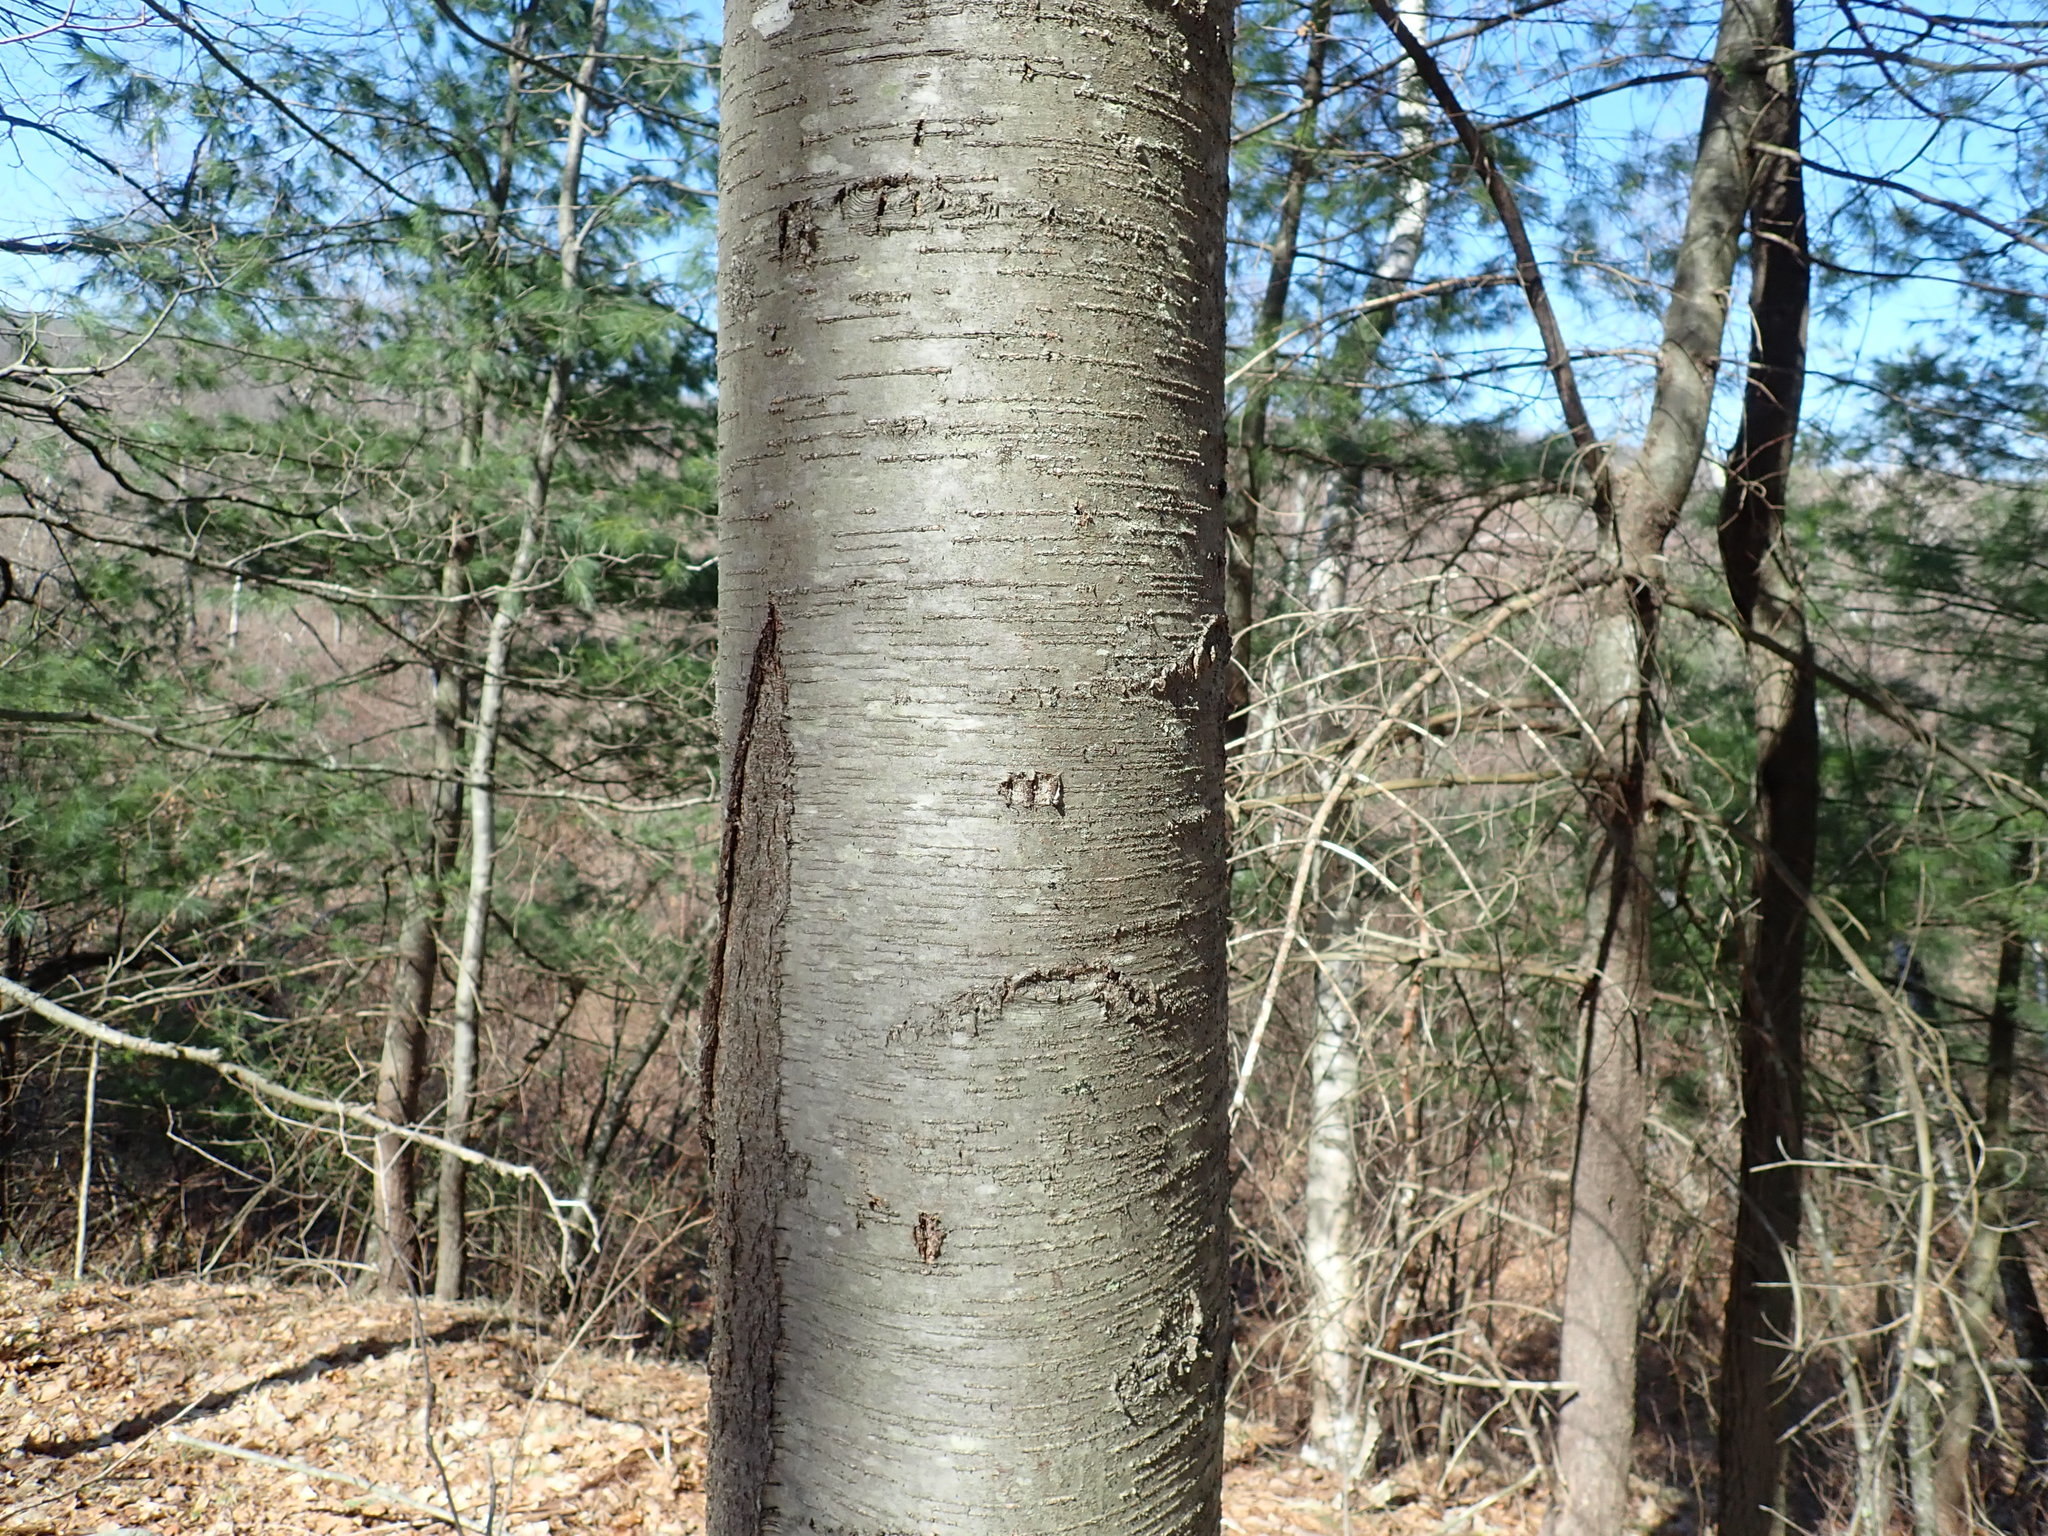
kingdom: Plantae
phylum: Tracheophyta
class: Magnoliopsida
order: Fagales
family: Betulaceae
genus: Betula
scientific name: Betula lenta
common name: Black birch
